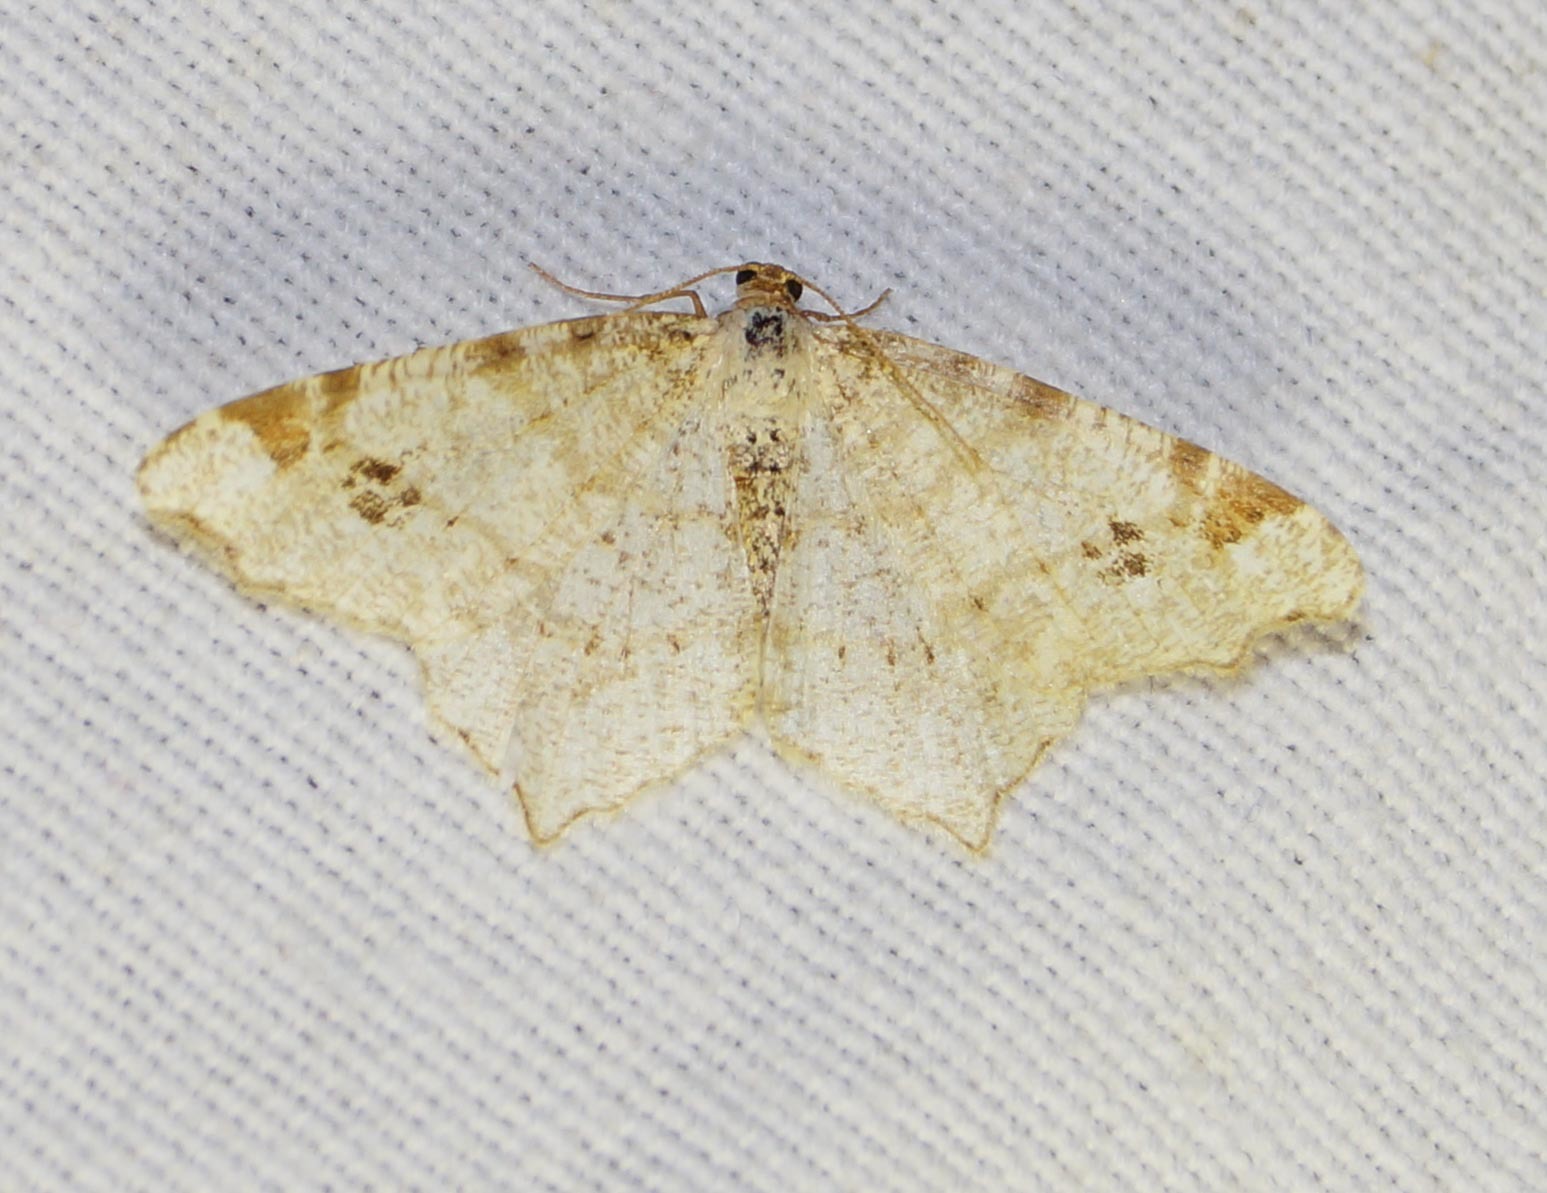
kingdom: Animalia
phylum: Arthropoda
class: Insecta
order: Lepidoptera
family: Geometridae
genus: Macaria
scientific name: Macaria notata
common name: Peacock moth
